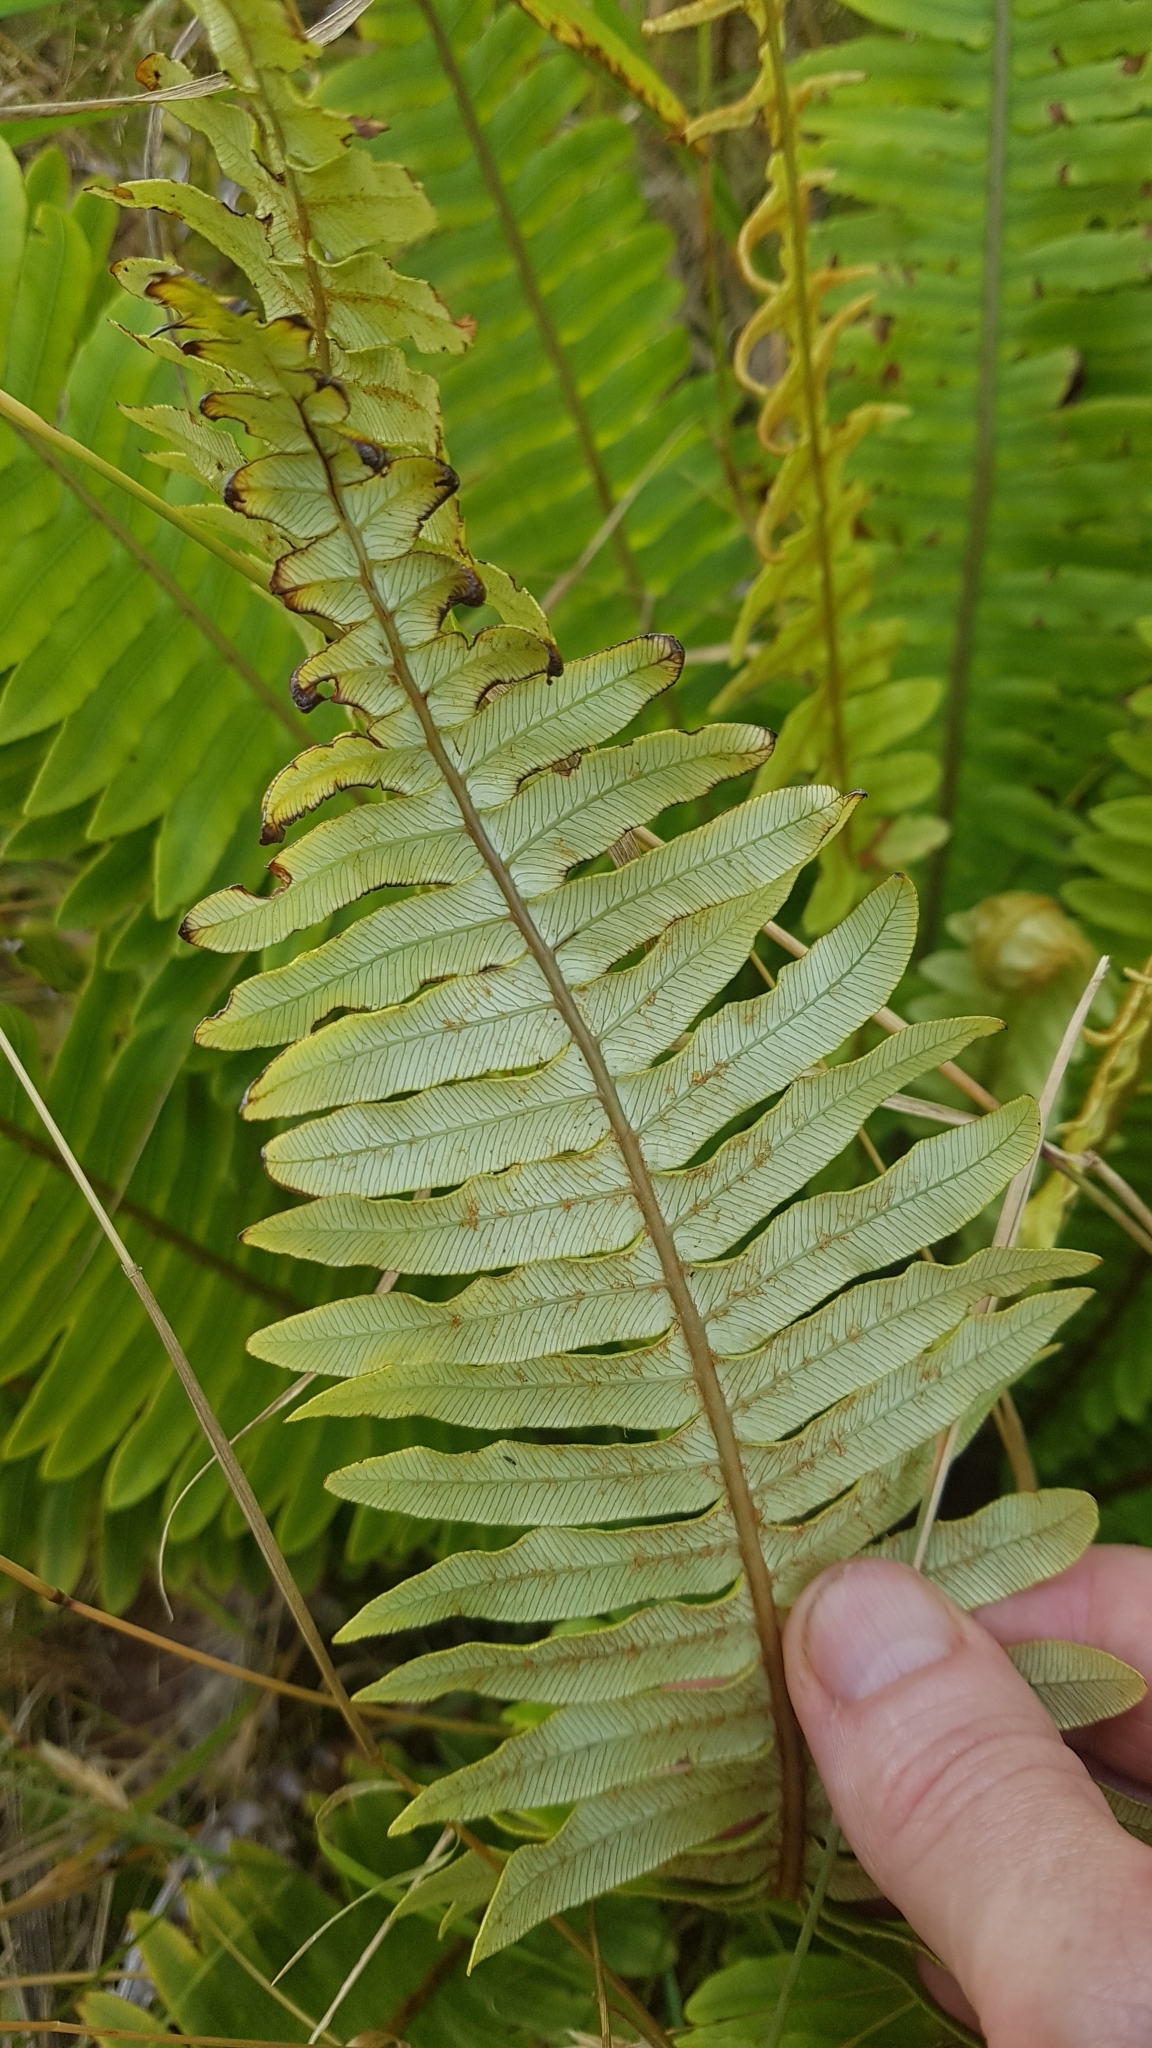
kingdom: Plantae
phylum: Tracheophyta
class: Polypodiopsida
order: Polypodiales
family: Blechnaceae
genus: Lomaria
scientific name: Lomaria discolor
